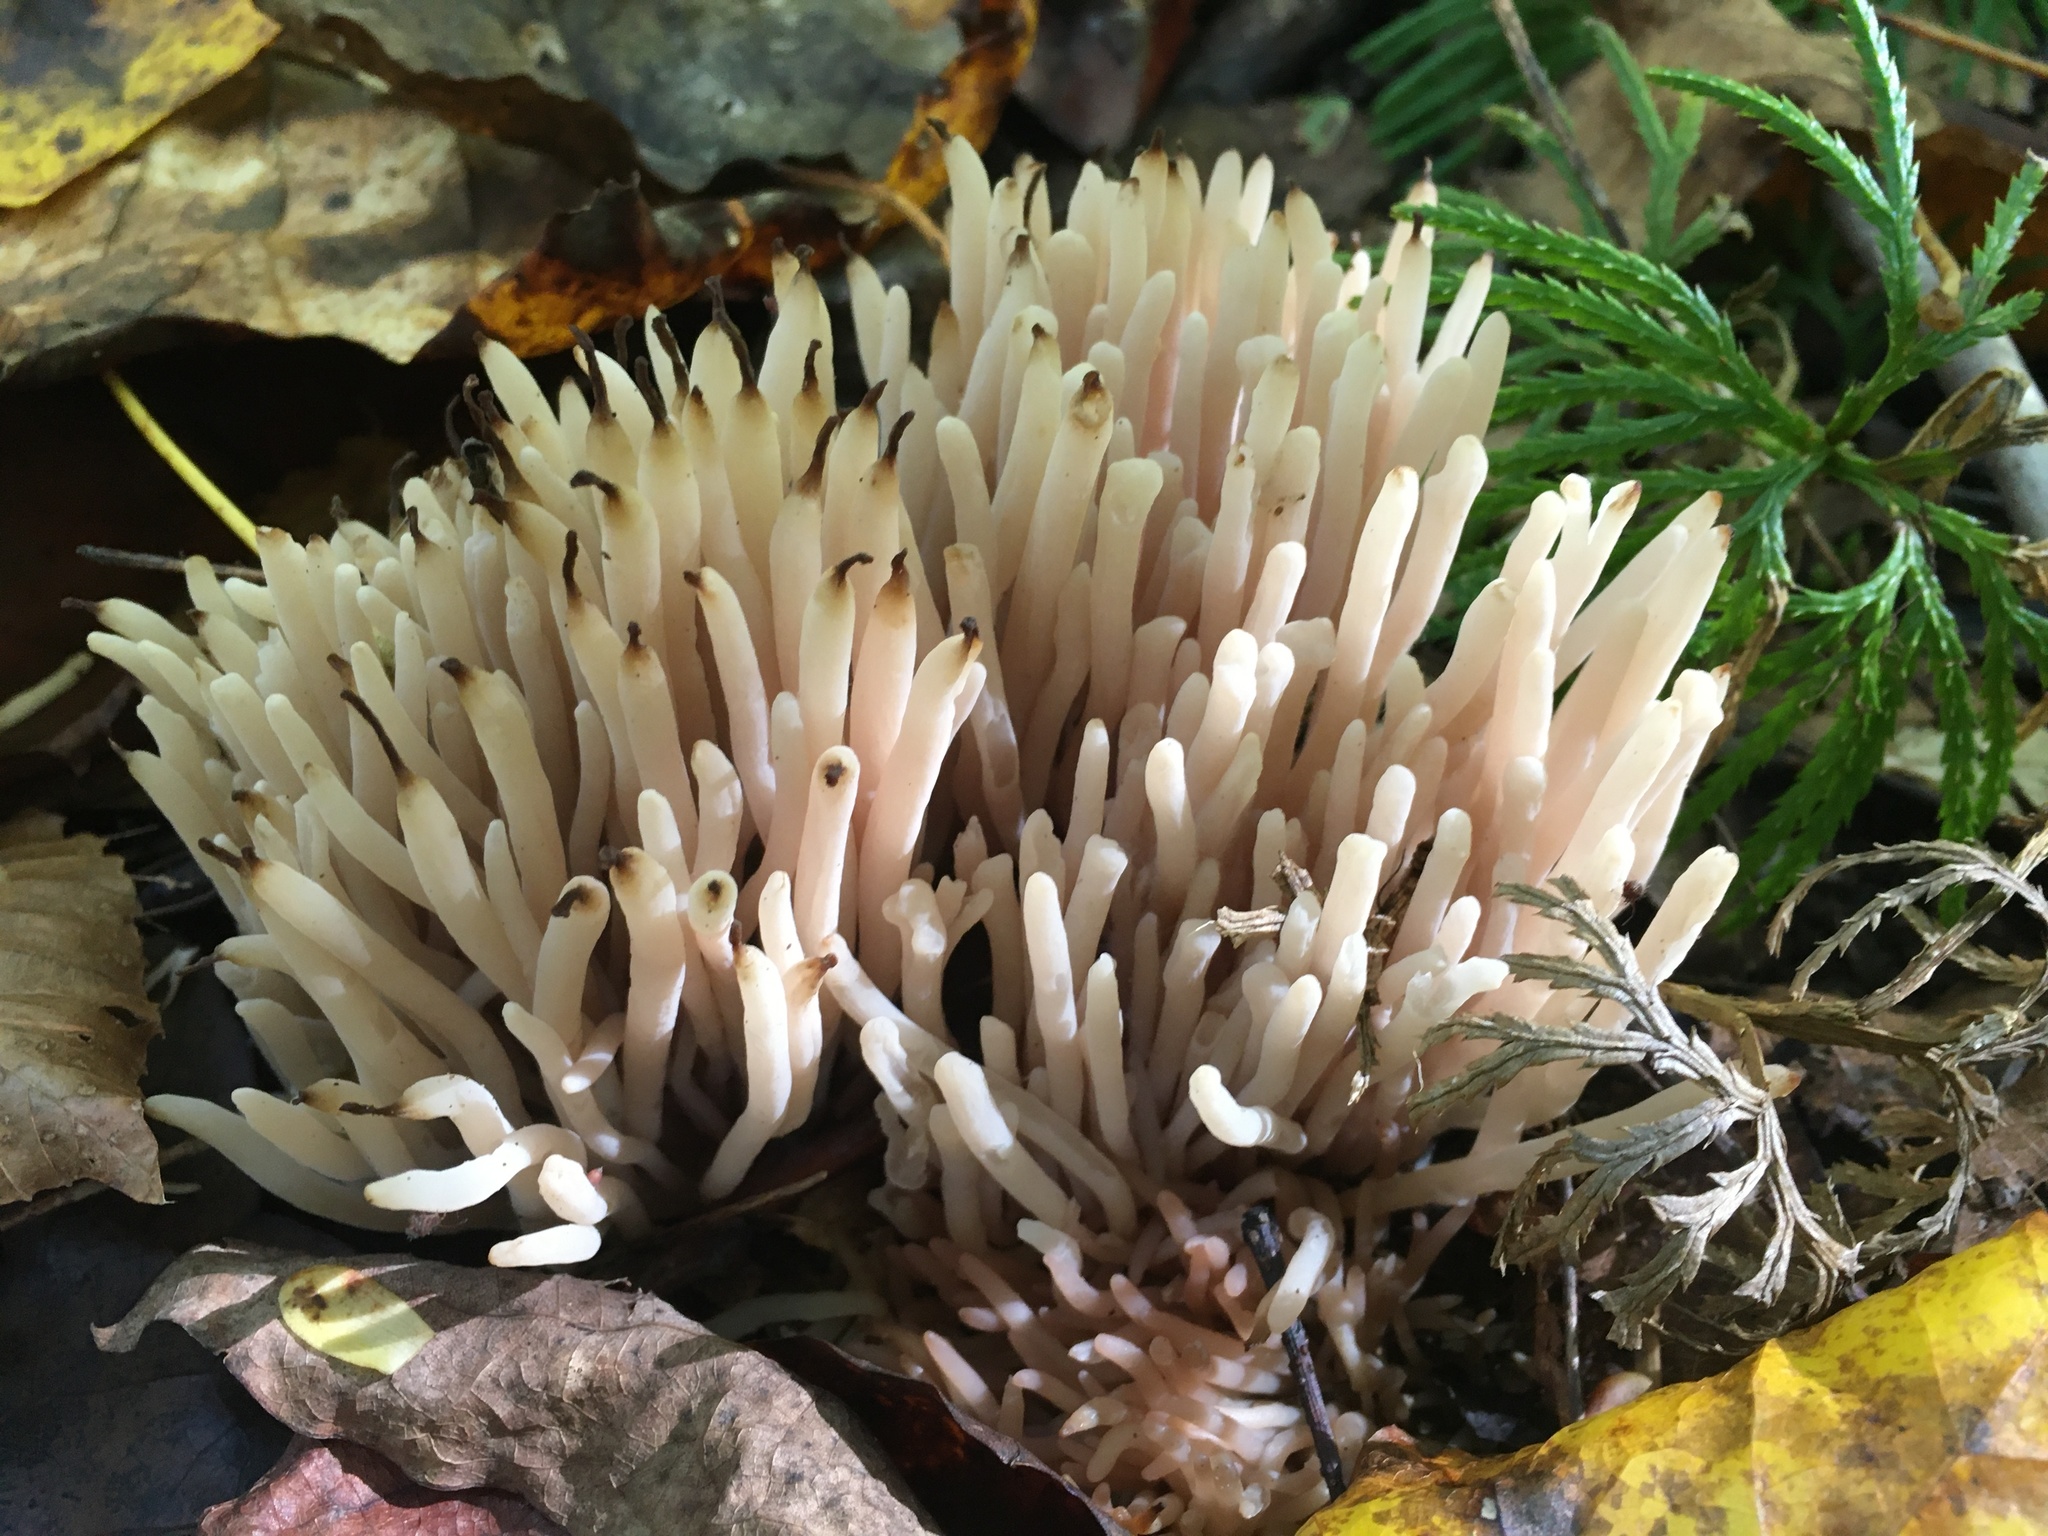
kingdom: Fungi
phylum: Basidiomycota
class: Agaricomycetes
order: Agaricales
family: Clavariaceae
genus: Clavaria
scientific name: Clavaria fumosa
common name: Smoky spindles
